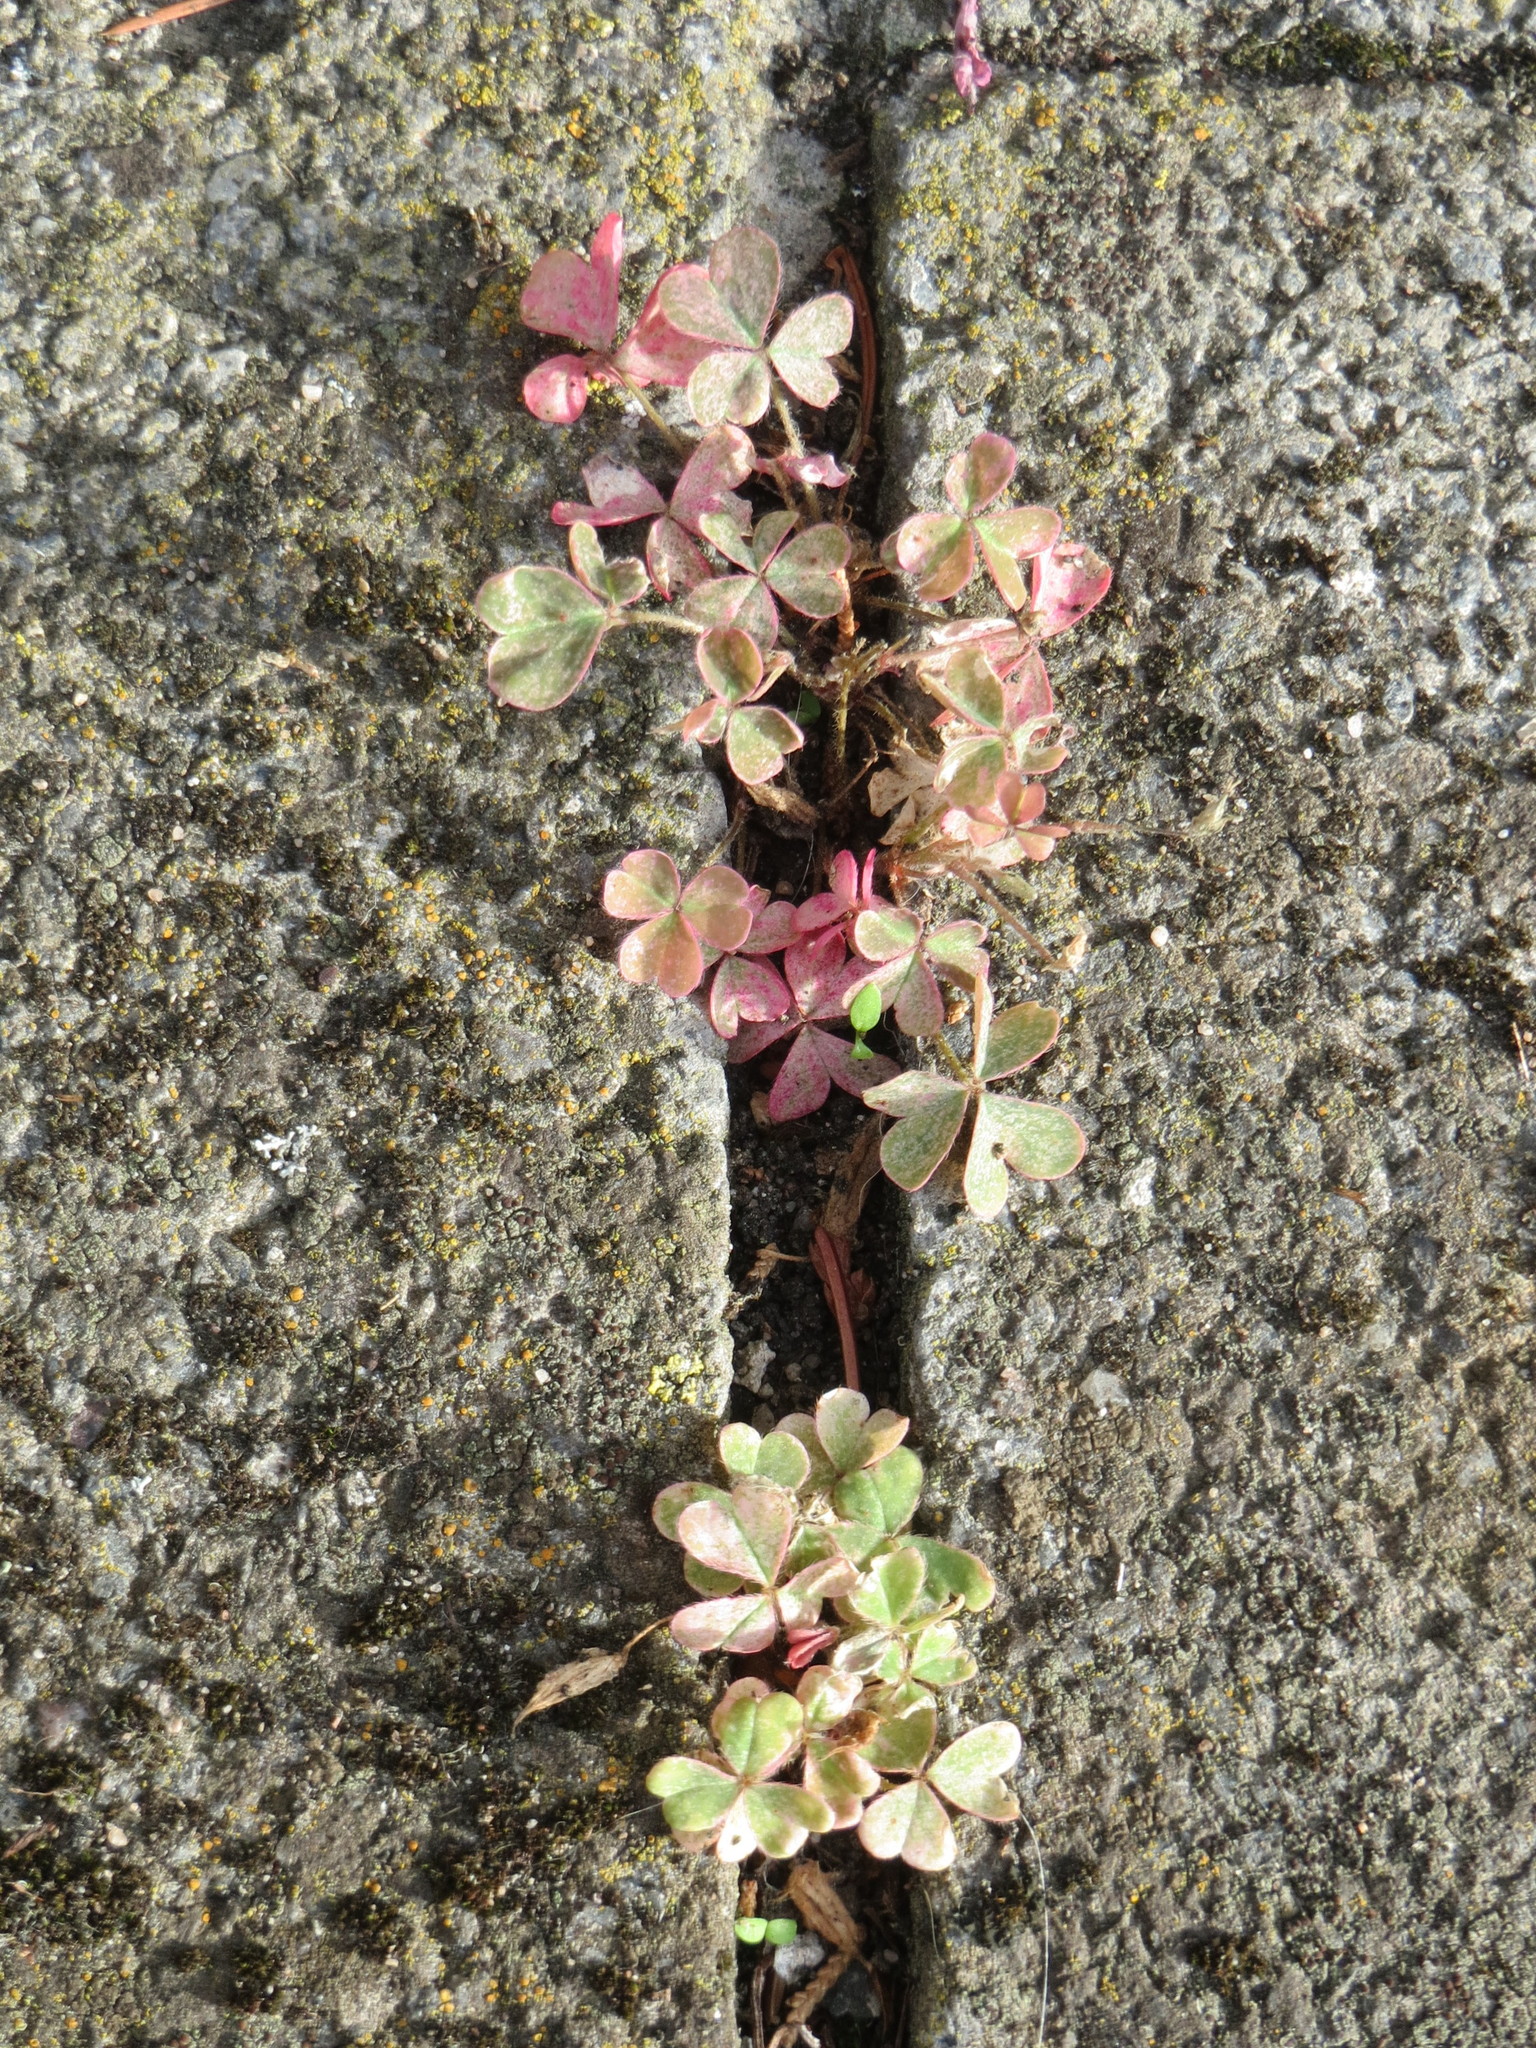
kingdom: Plantae
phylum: Tracheophyta
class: Magnoliopsida
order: Oxalidales
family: Oxalidaceae
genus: Oxalis
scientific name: Oxalis corniculata
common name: Procumbent yellow-sorrel
